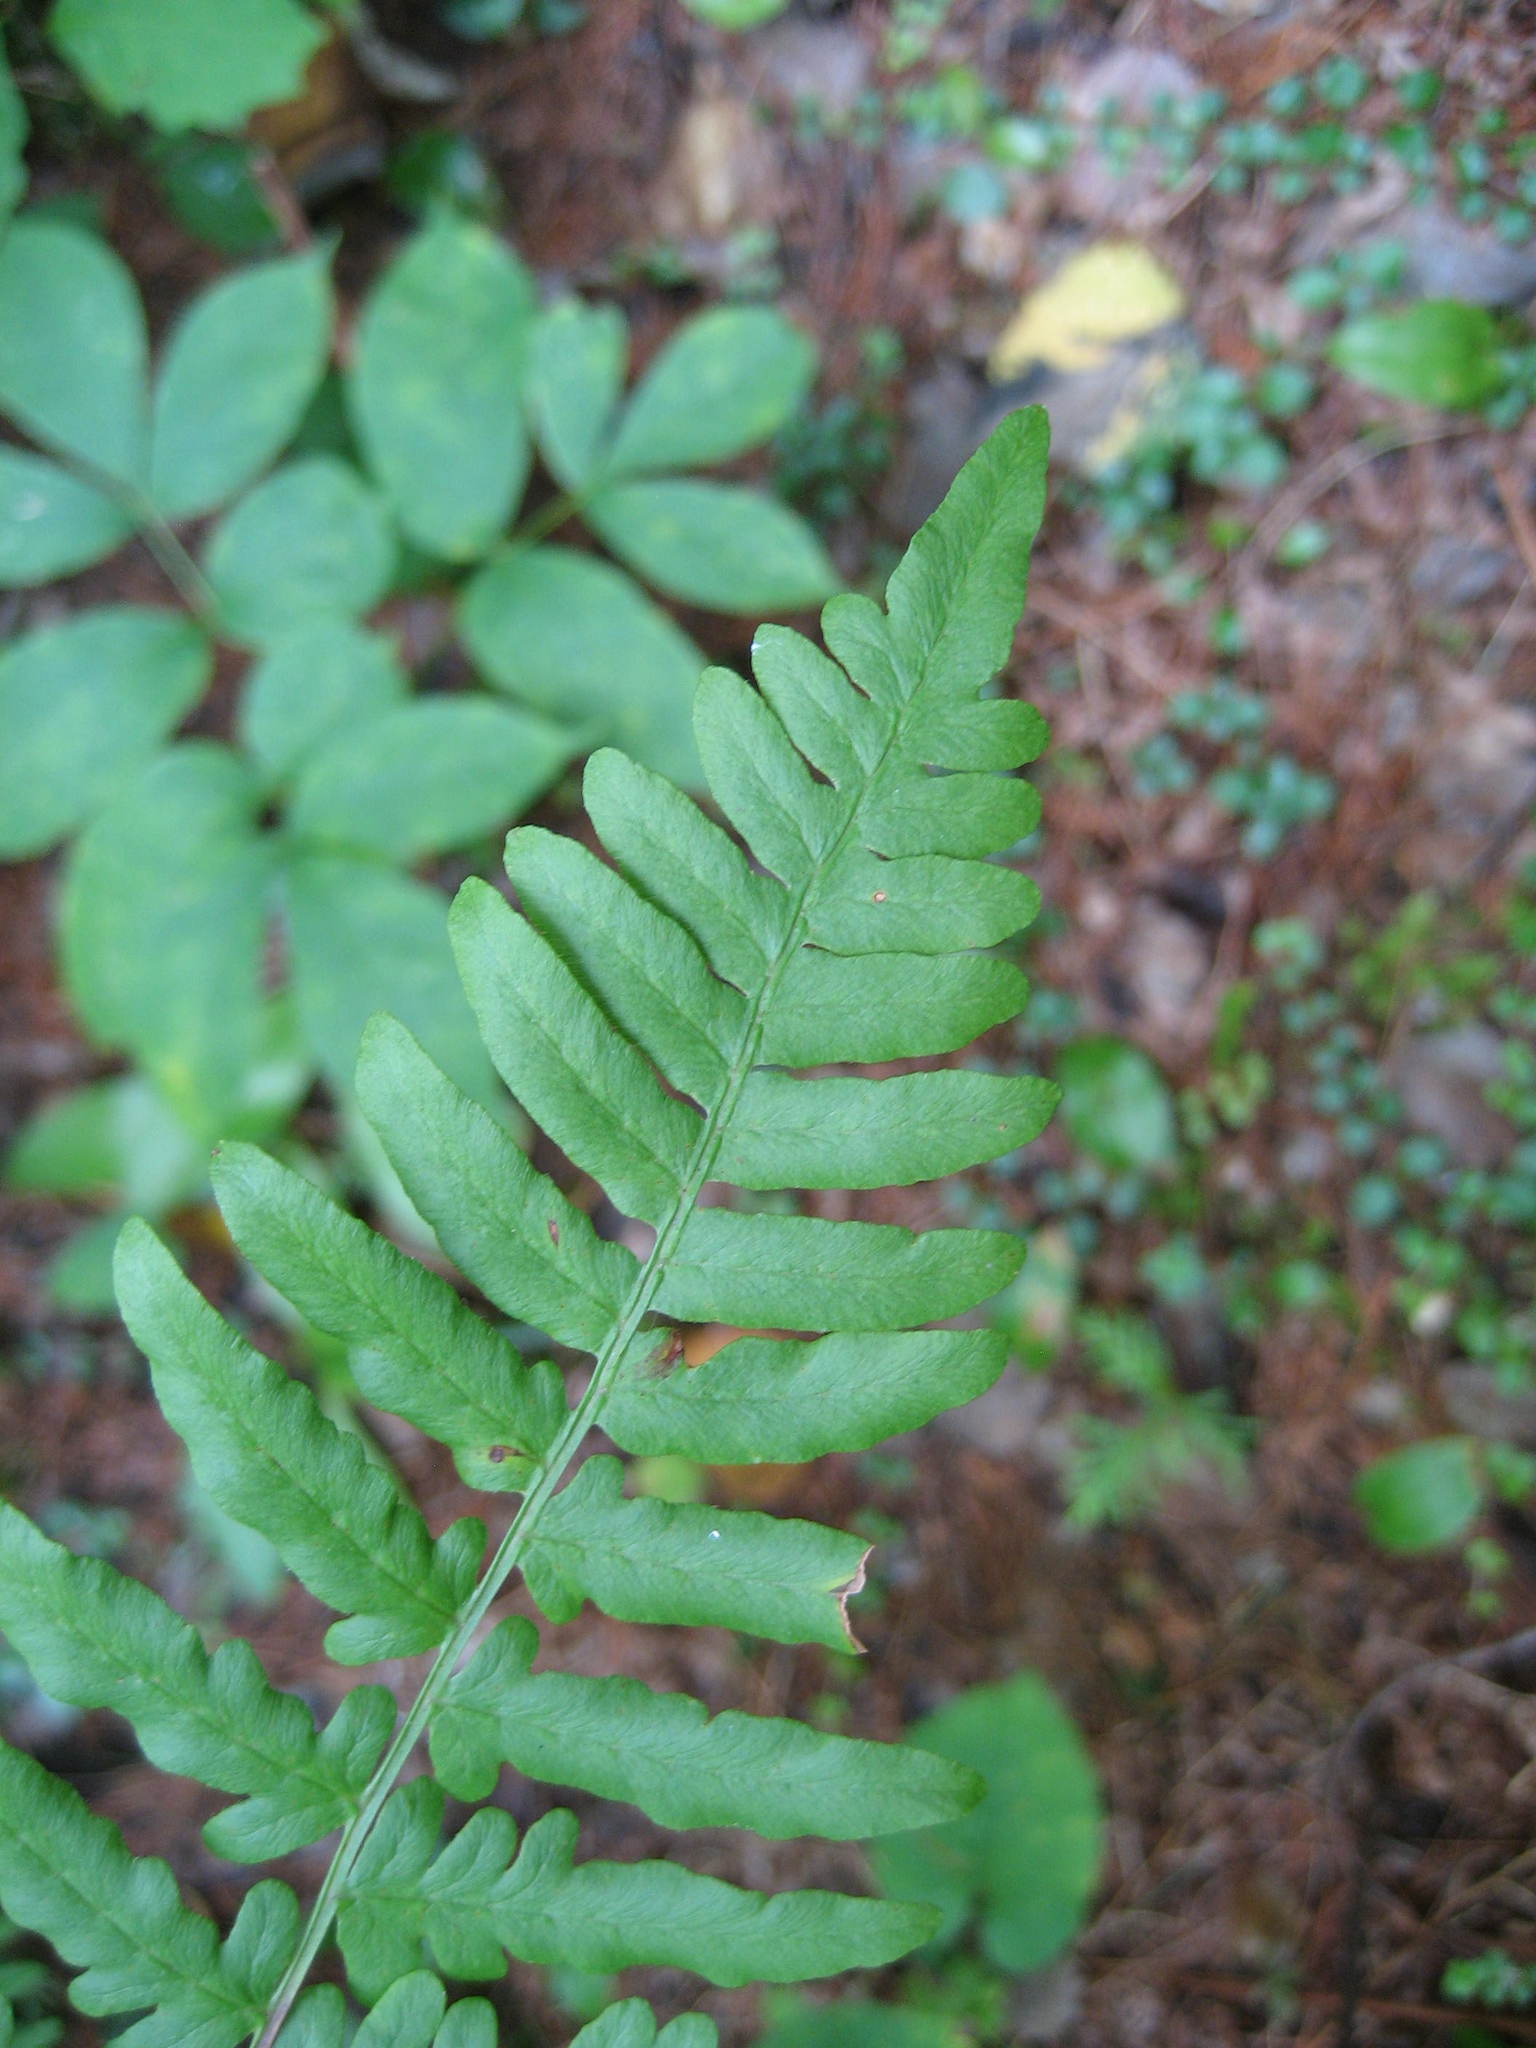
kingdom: Plantae
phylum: Tracheophyta
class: Polypodiopsida
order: Polypodiales
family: Dennstaedtiaceae
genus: Pteridium
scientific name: Pteridium aquilinum
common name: Bracken
